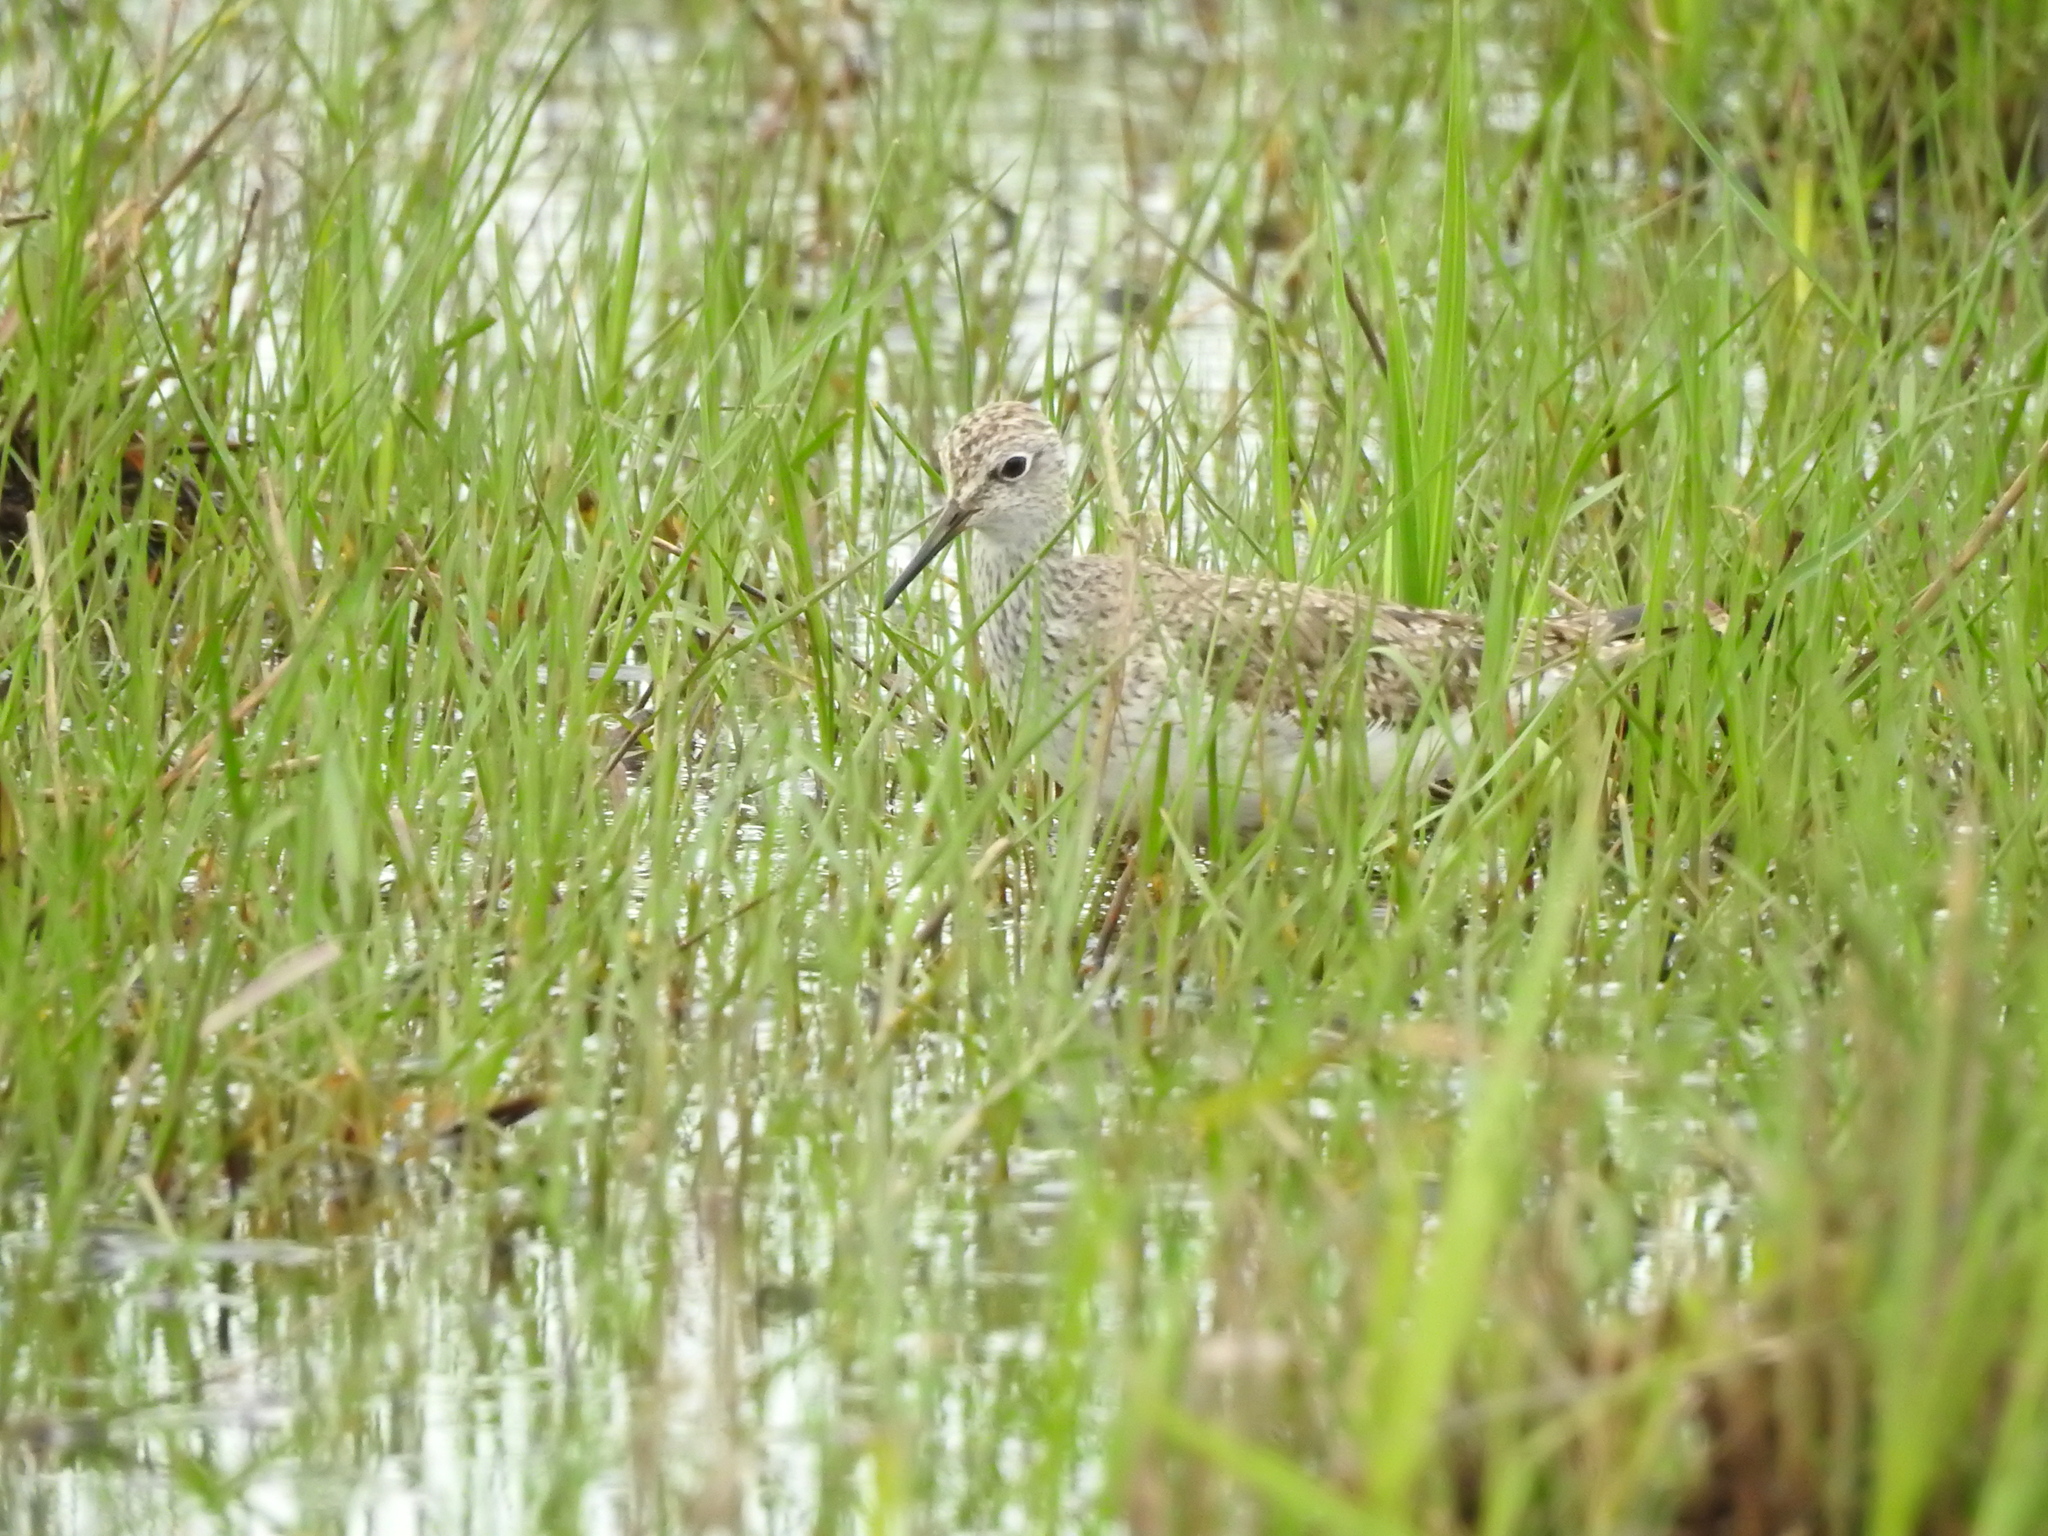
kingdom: Animalia
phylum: Chordata
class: Aves
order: Charadriiformes
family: Scolopacidae
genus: Tringa
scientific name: Tringa flavipes
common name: Lesser yellowlegs
